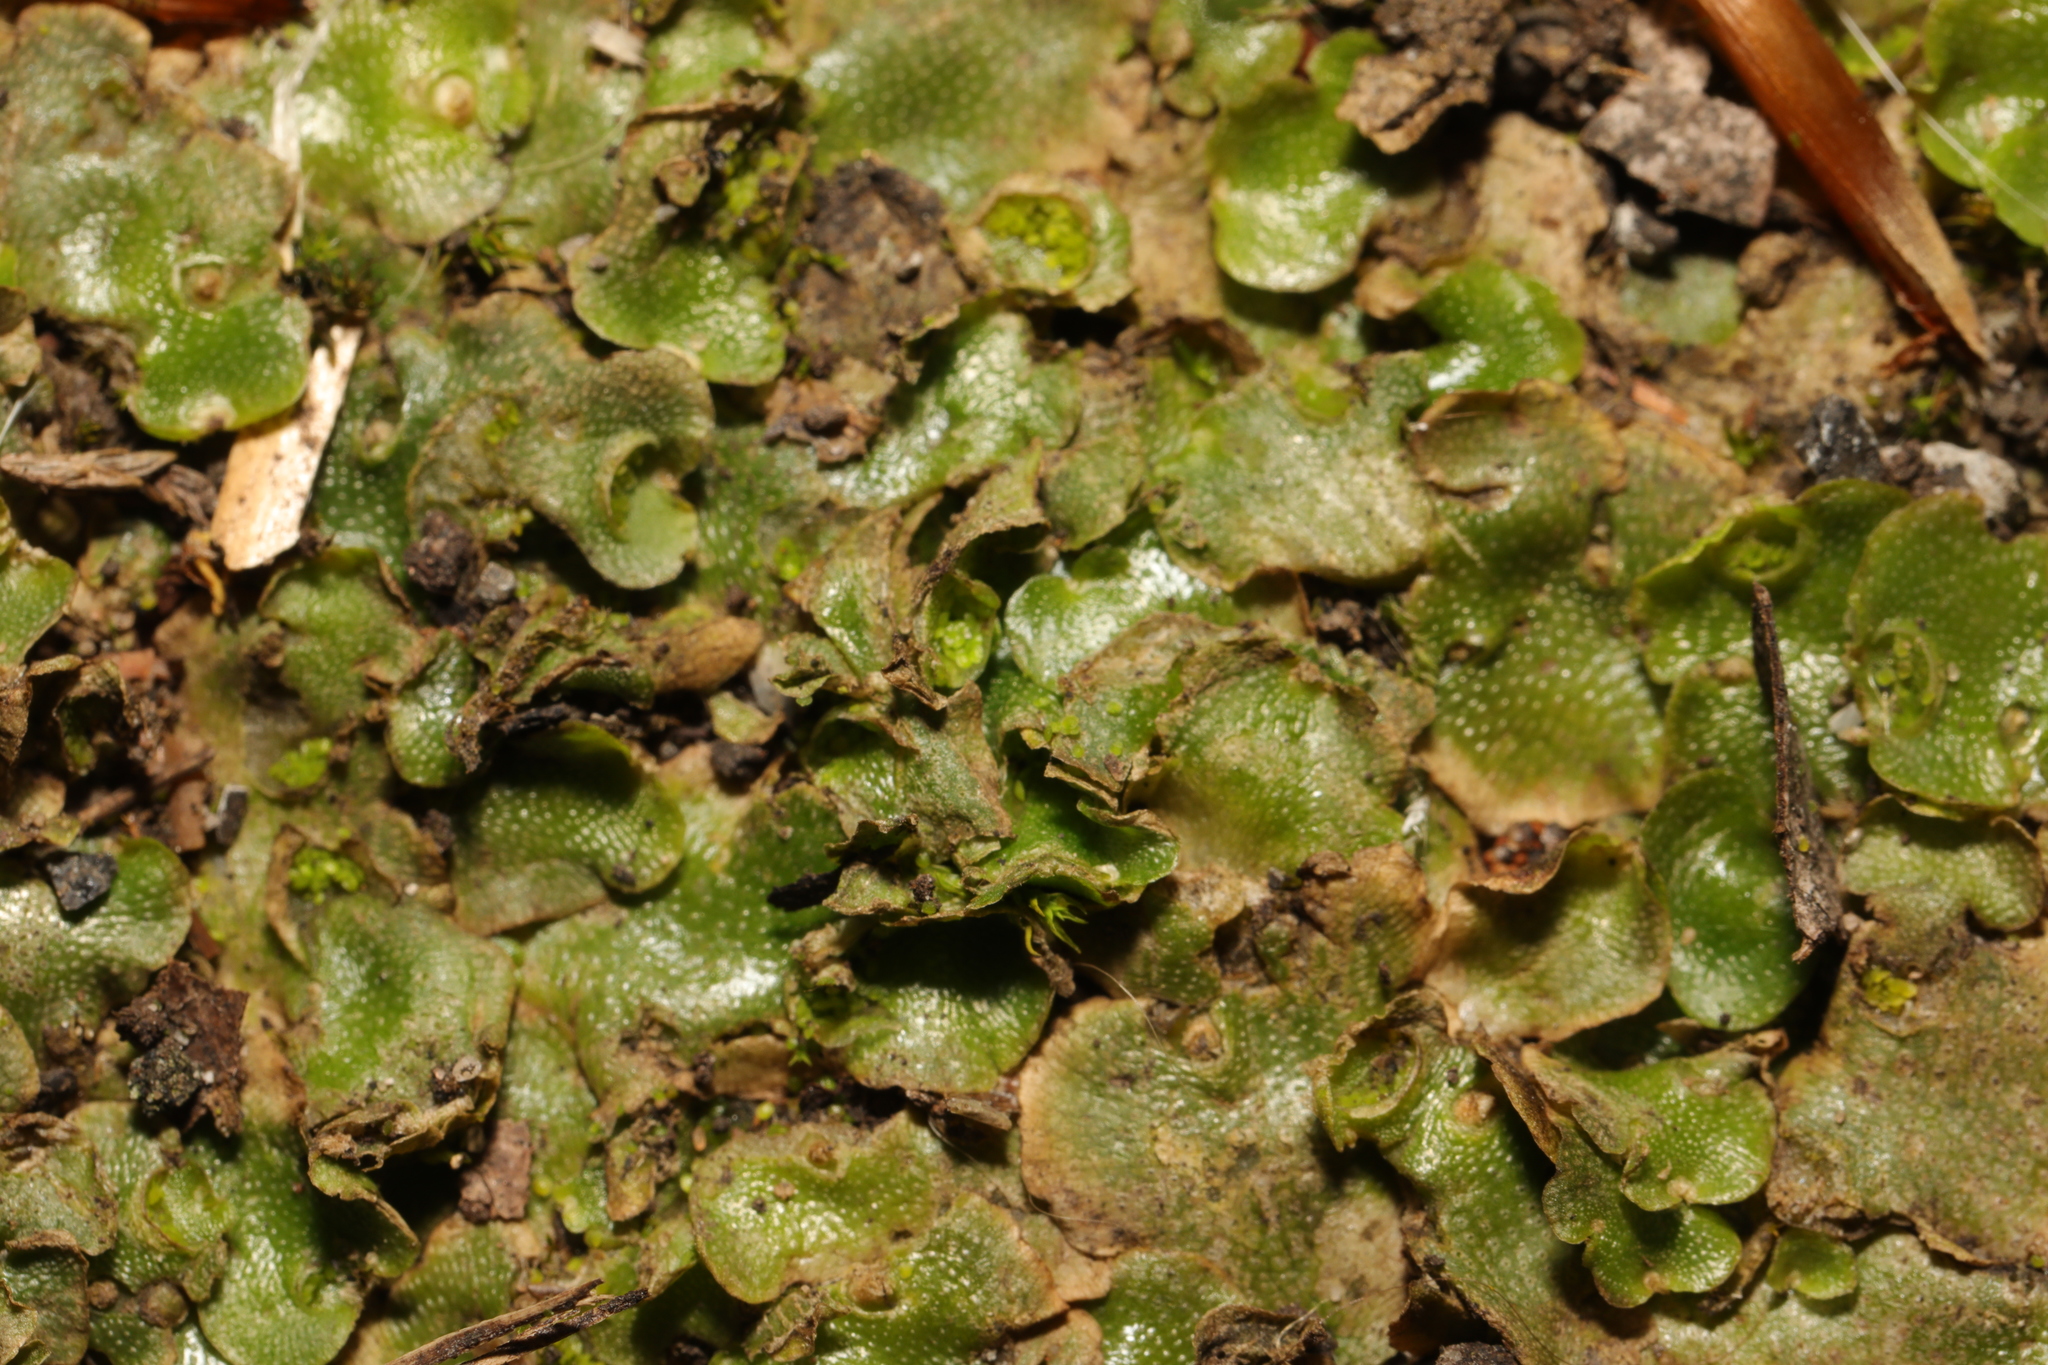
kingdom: Plantae
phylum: Marchantiophyta
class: Marchantiopsida
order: Lunulariales
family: Lunulariaceae
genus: Lunularia
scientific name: Lunularia cruciata
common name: Crescent-cup liverwort
